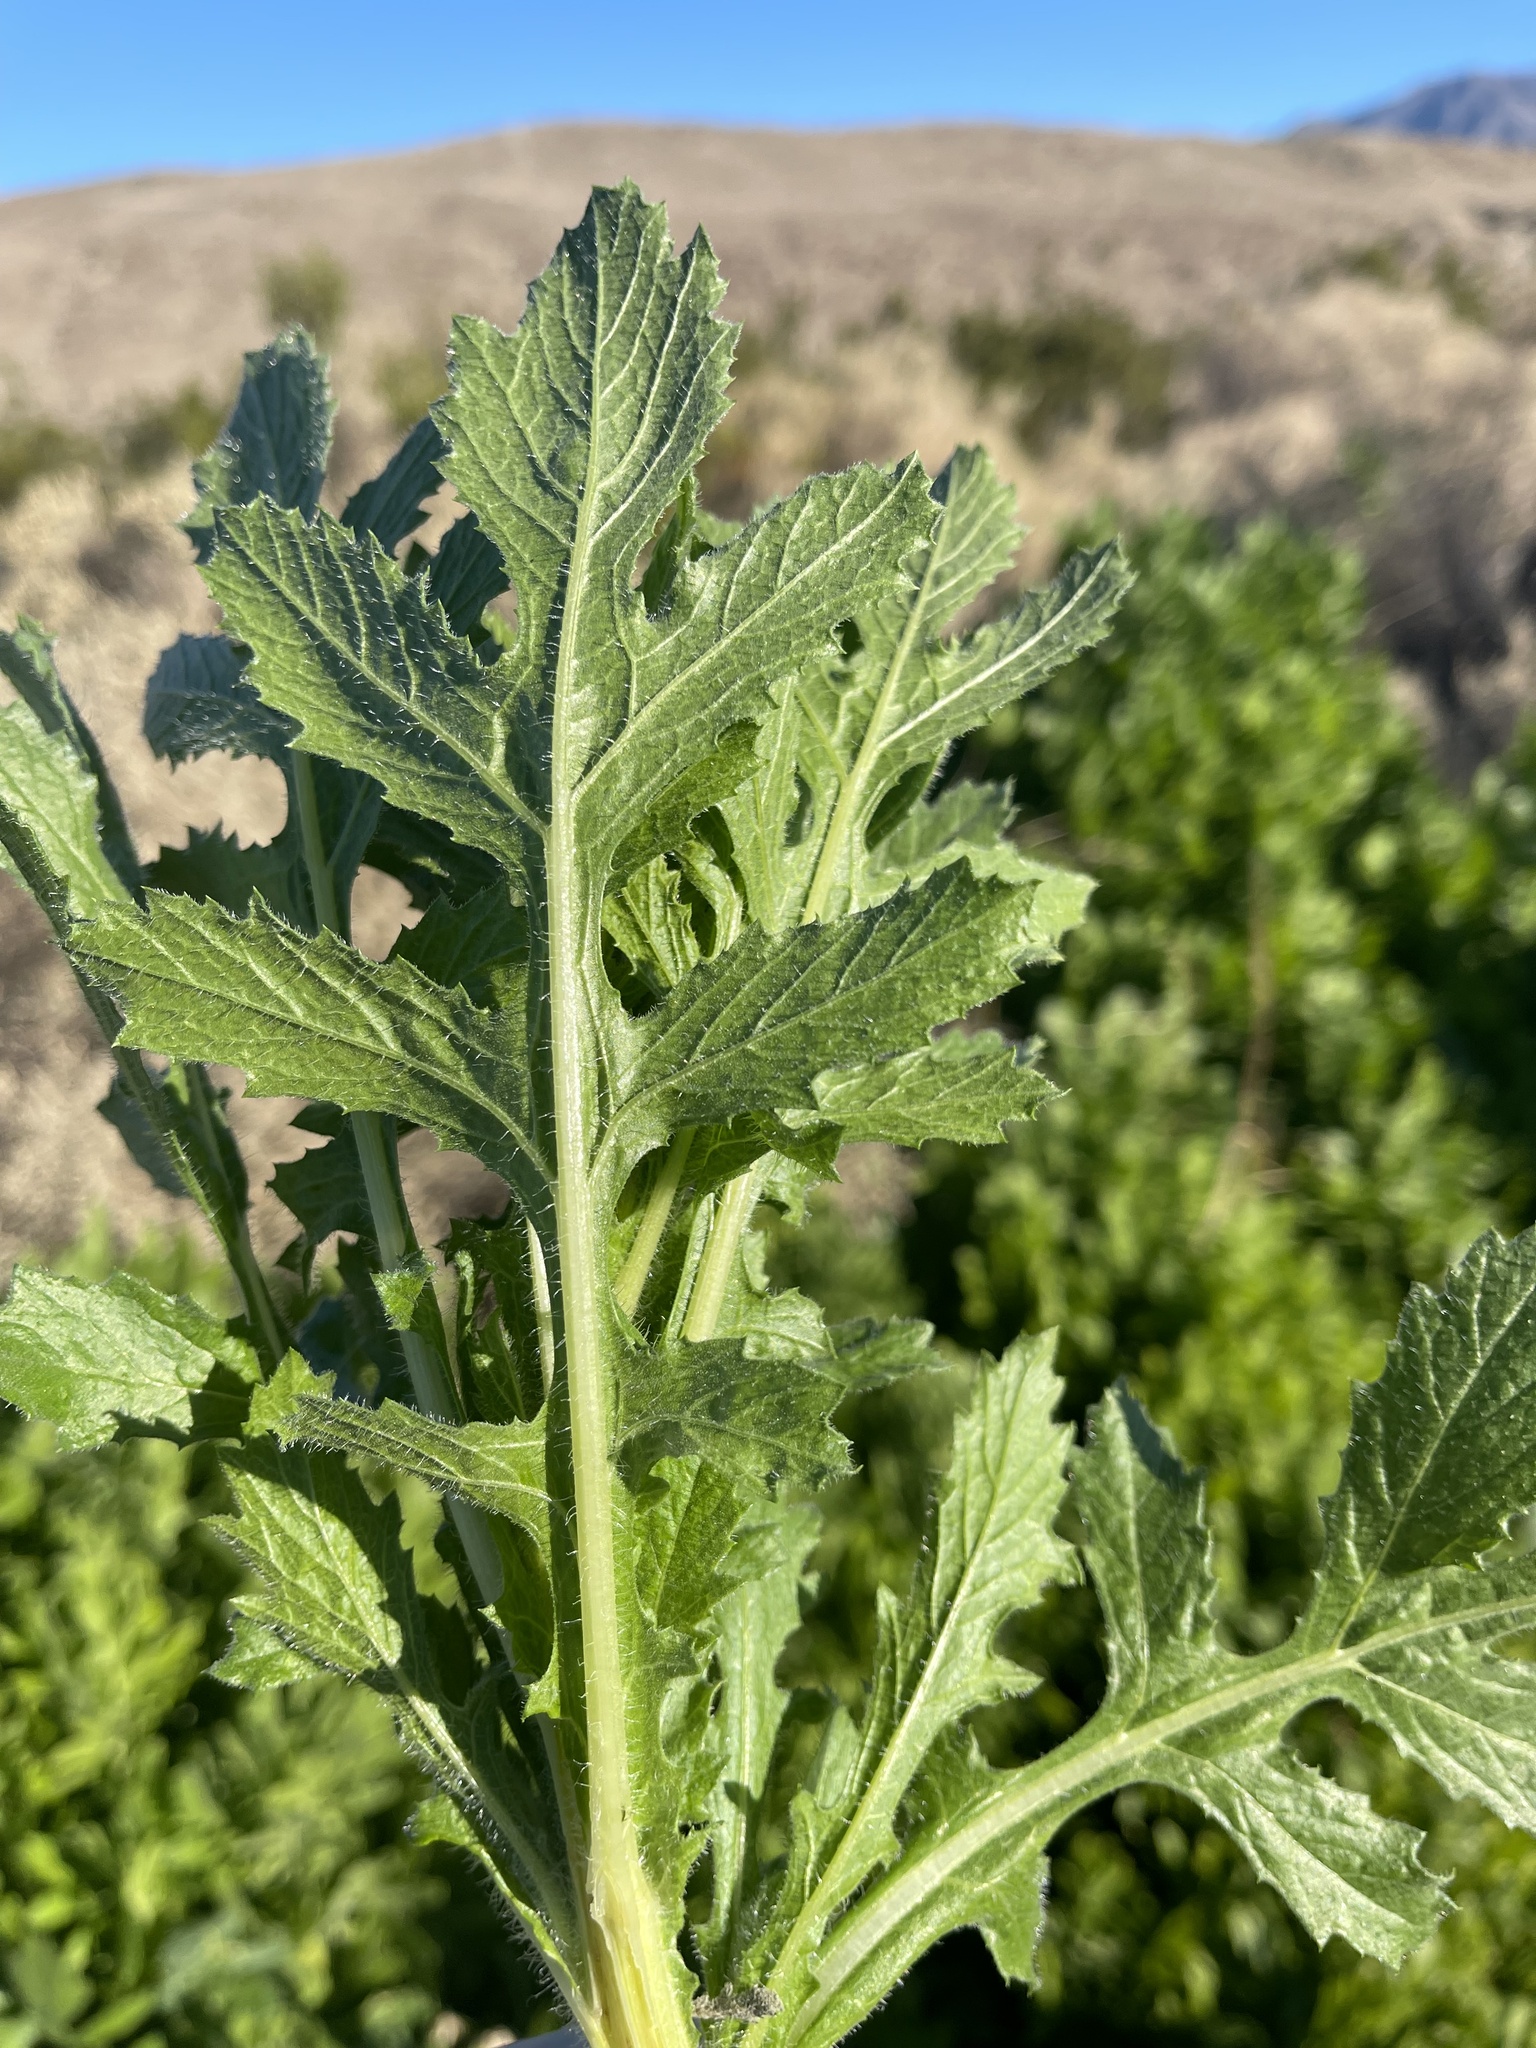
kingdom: Plantae
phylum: Tracheophyta
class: Magnoliopsida
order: Asterales
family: Asteraceae
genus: Volutaria
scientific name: Volutaria tubuliflora
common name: Desert knapweed
